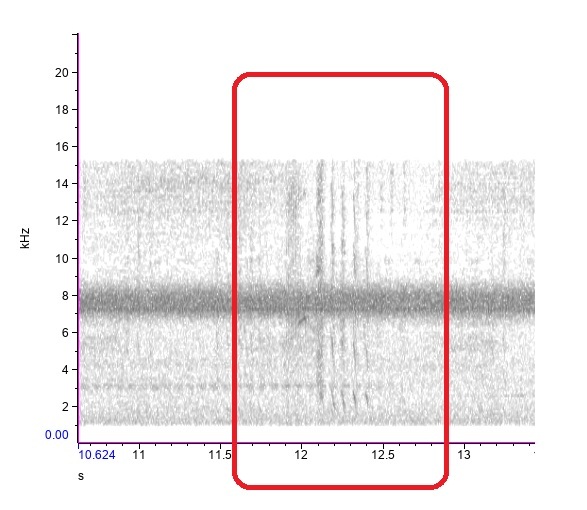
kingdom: Animalia
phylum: Chordata
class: Aves
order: Apodiformes
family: Trochilidae
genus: Archilochus
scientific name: Archilochus colubris
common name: Ruby-throated hummingbird
